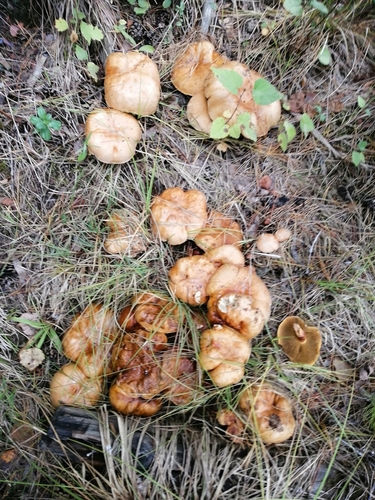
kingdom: Fungi
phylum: Basidiomycota
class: Agaricomycetes
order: Boletales
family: Suillaceae
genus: Suillus
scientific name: Suillus granulatus
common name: Weeping bolete
